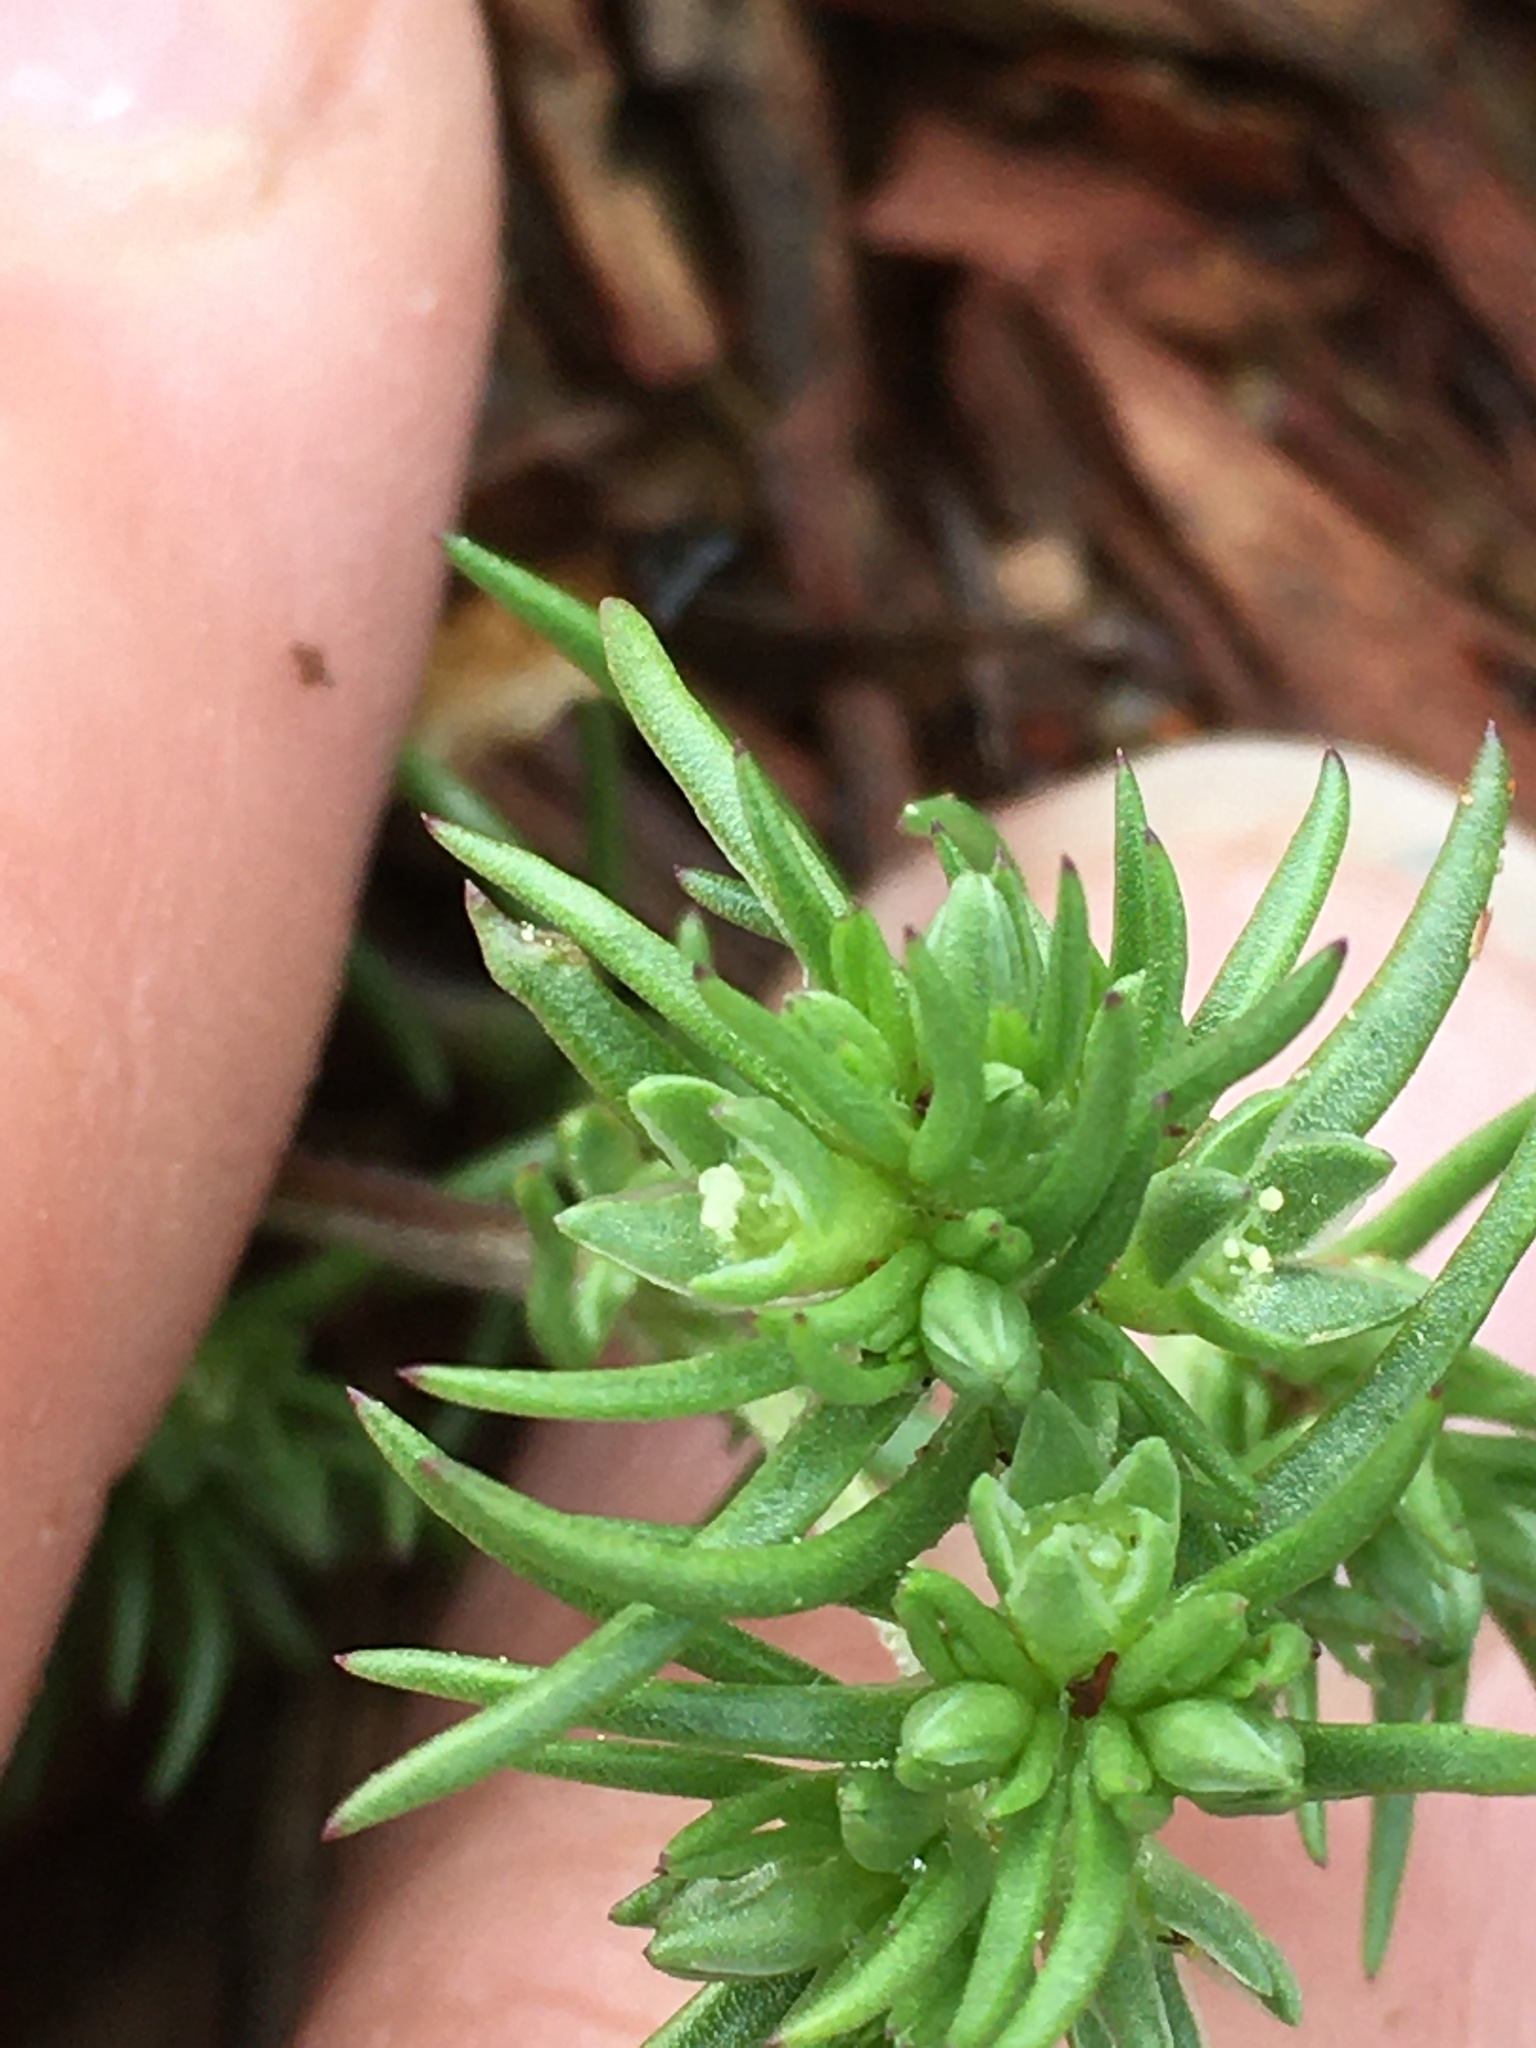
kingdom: Plantae
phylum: Tracheophyta
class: Magnoliopsida
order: Caryophyllales
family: Caryophyllaceae
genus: Scleranthus
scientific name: Scleranthus annuus
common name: Annual knawel
